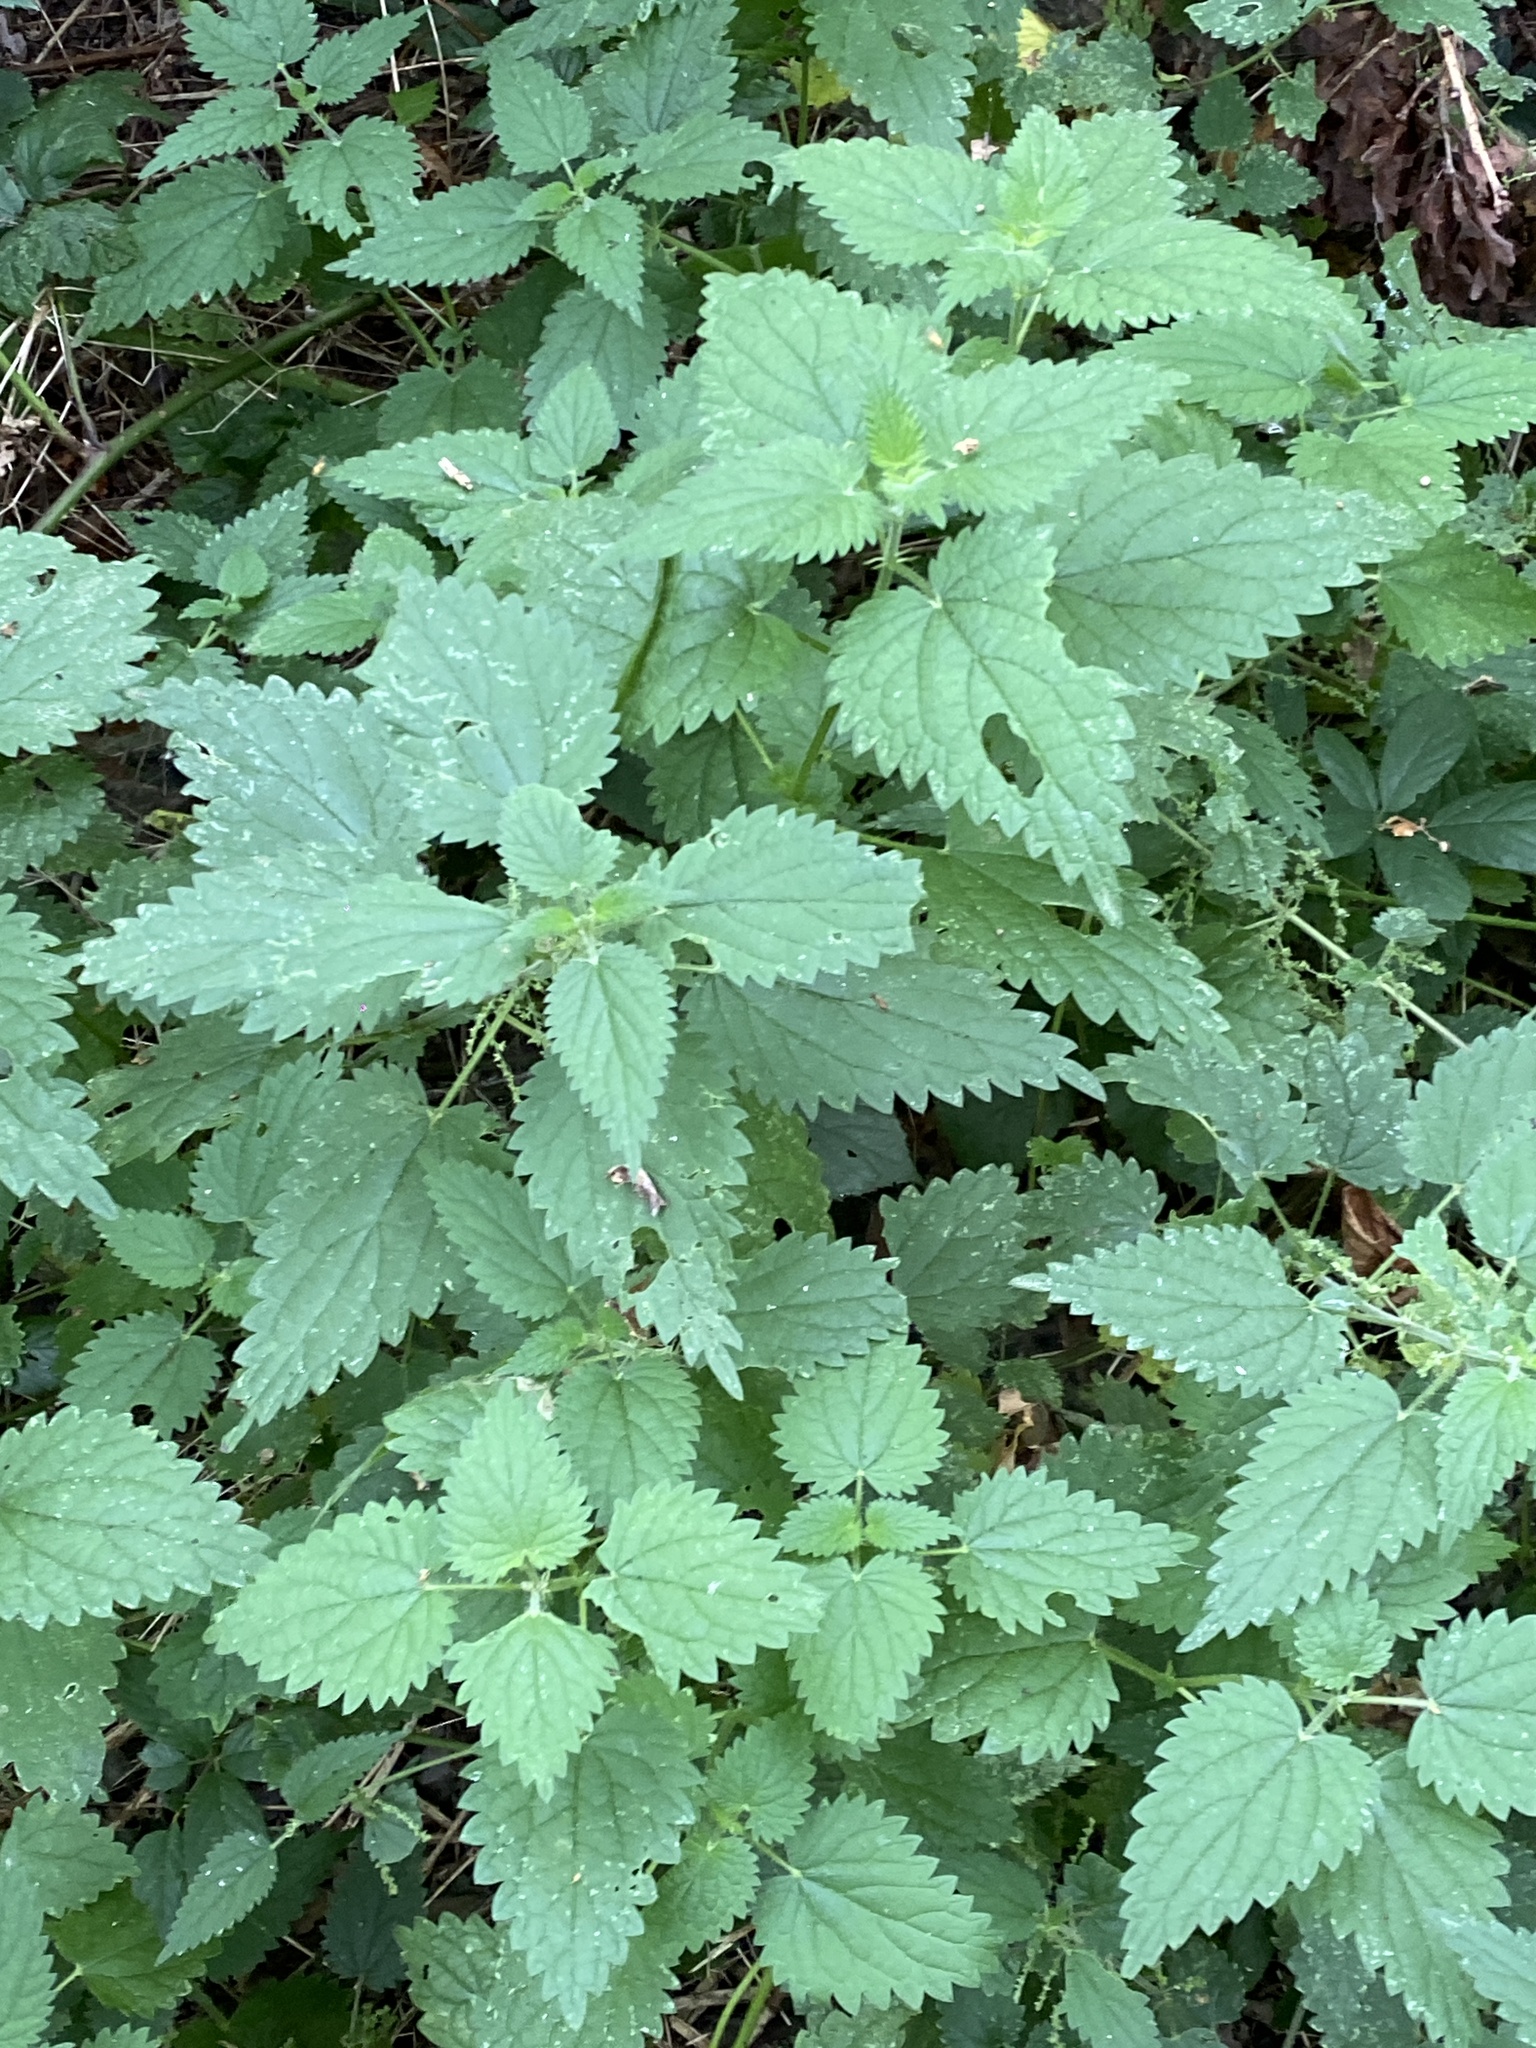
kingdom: Plantae
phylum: Tracheophyta
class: Magnoliopsida
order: Rosales
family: Urticaceae
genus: Urtica
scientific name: Urtica dioica
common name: Common nettle
